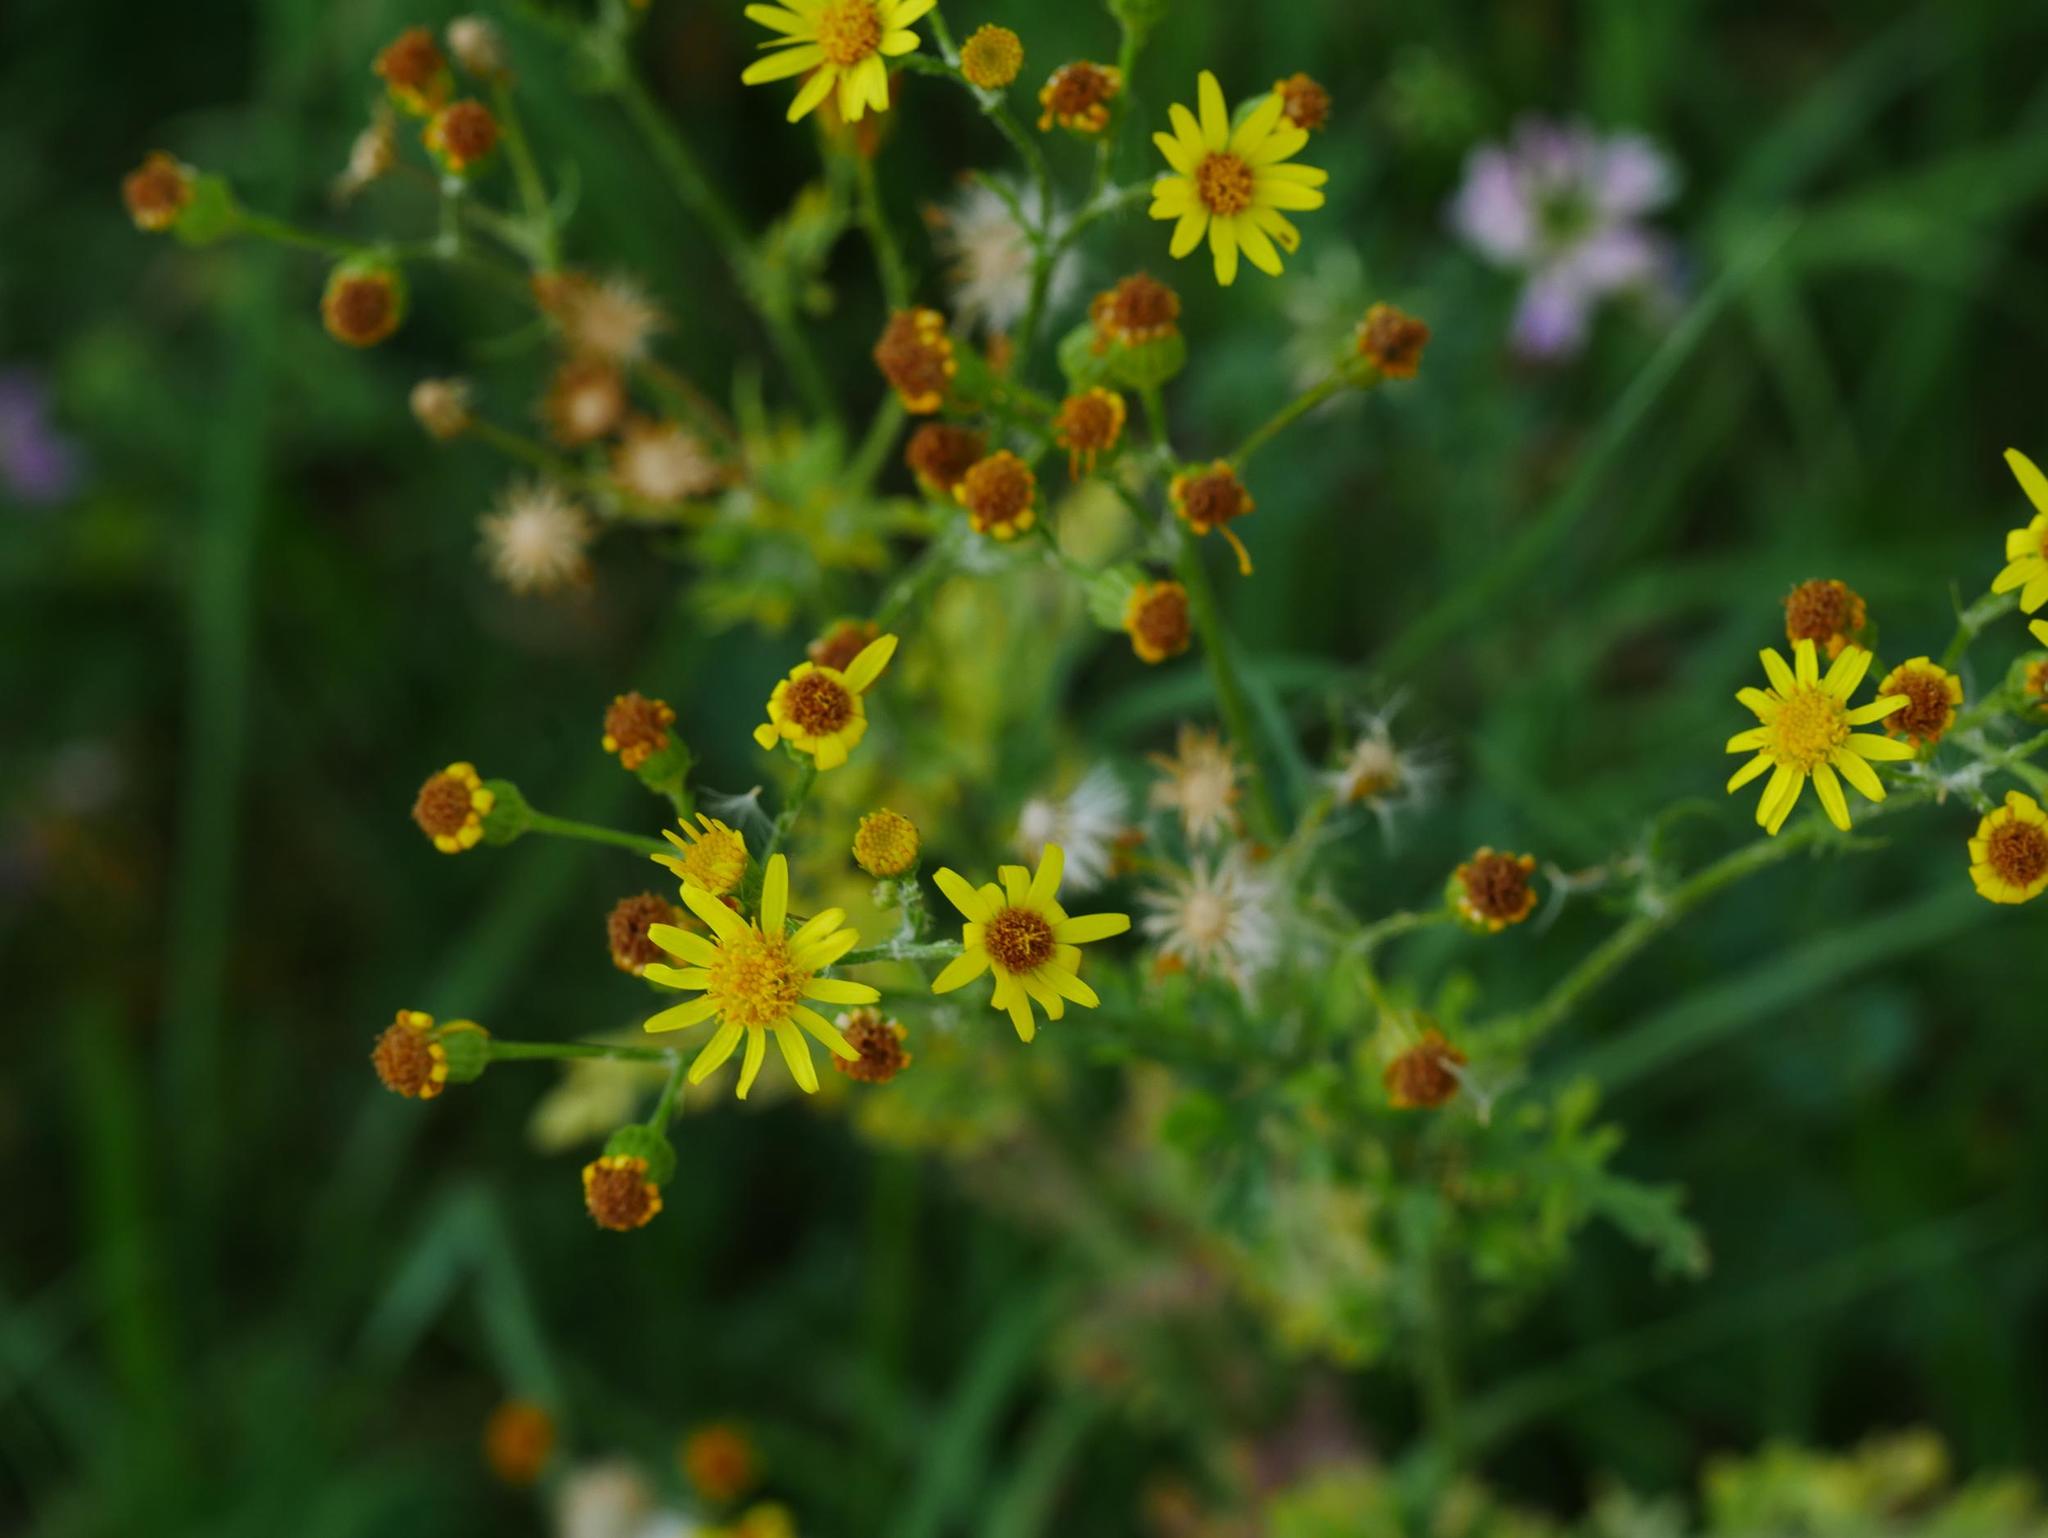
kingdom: Plantae
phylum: Tracheophyta
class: Magnoliopsida
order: Asterales
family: Asteraceae
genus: Jacobaea
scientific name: Jacobaea vulgaris
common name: Stinking willie
